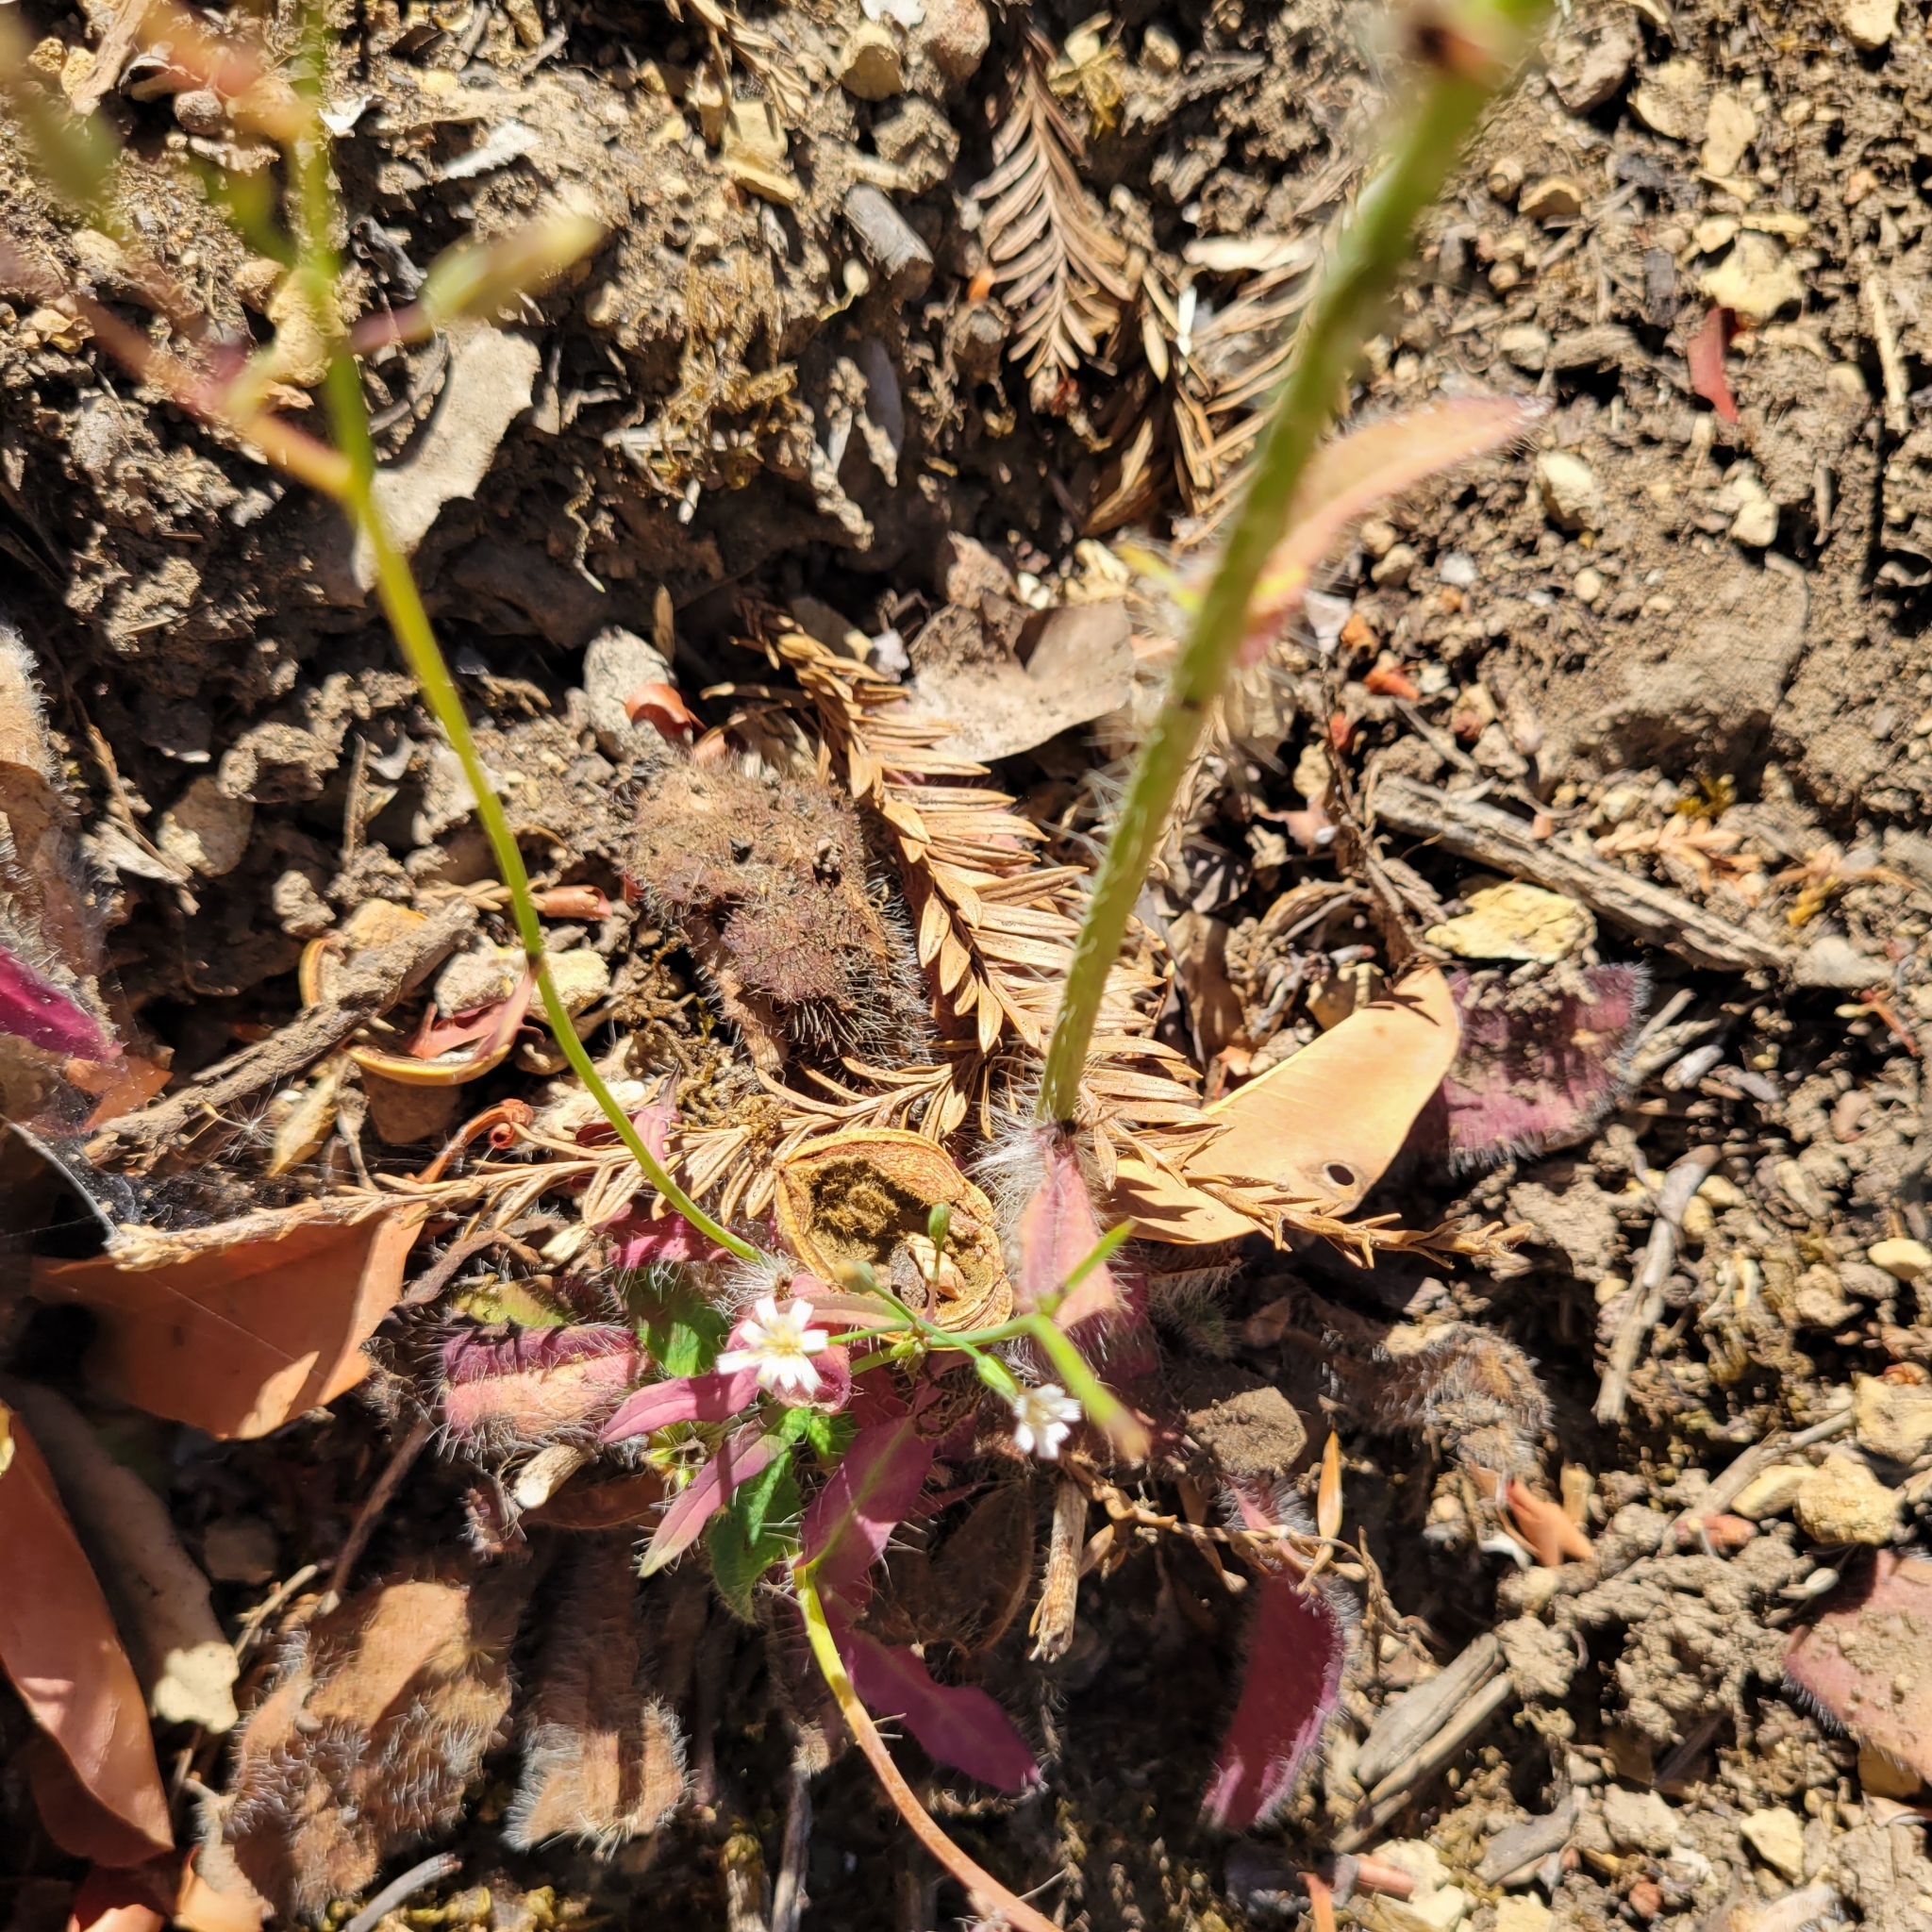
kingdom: Plantae
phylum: Tracheophyta
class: Magnoliopsida
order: Asterales
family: Asteraceae
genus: Hieracium
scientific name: Hieracium albiflorum
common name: White hawkweed
